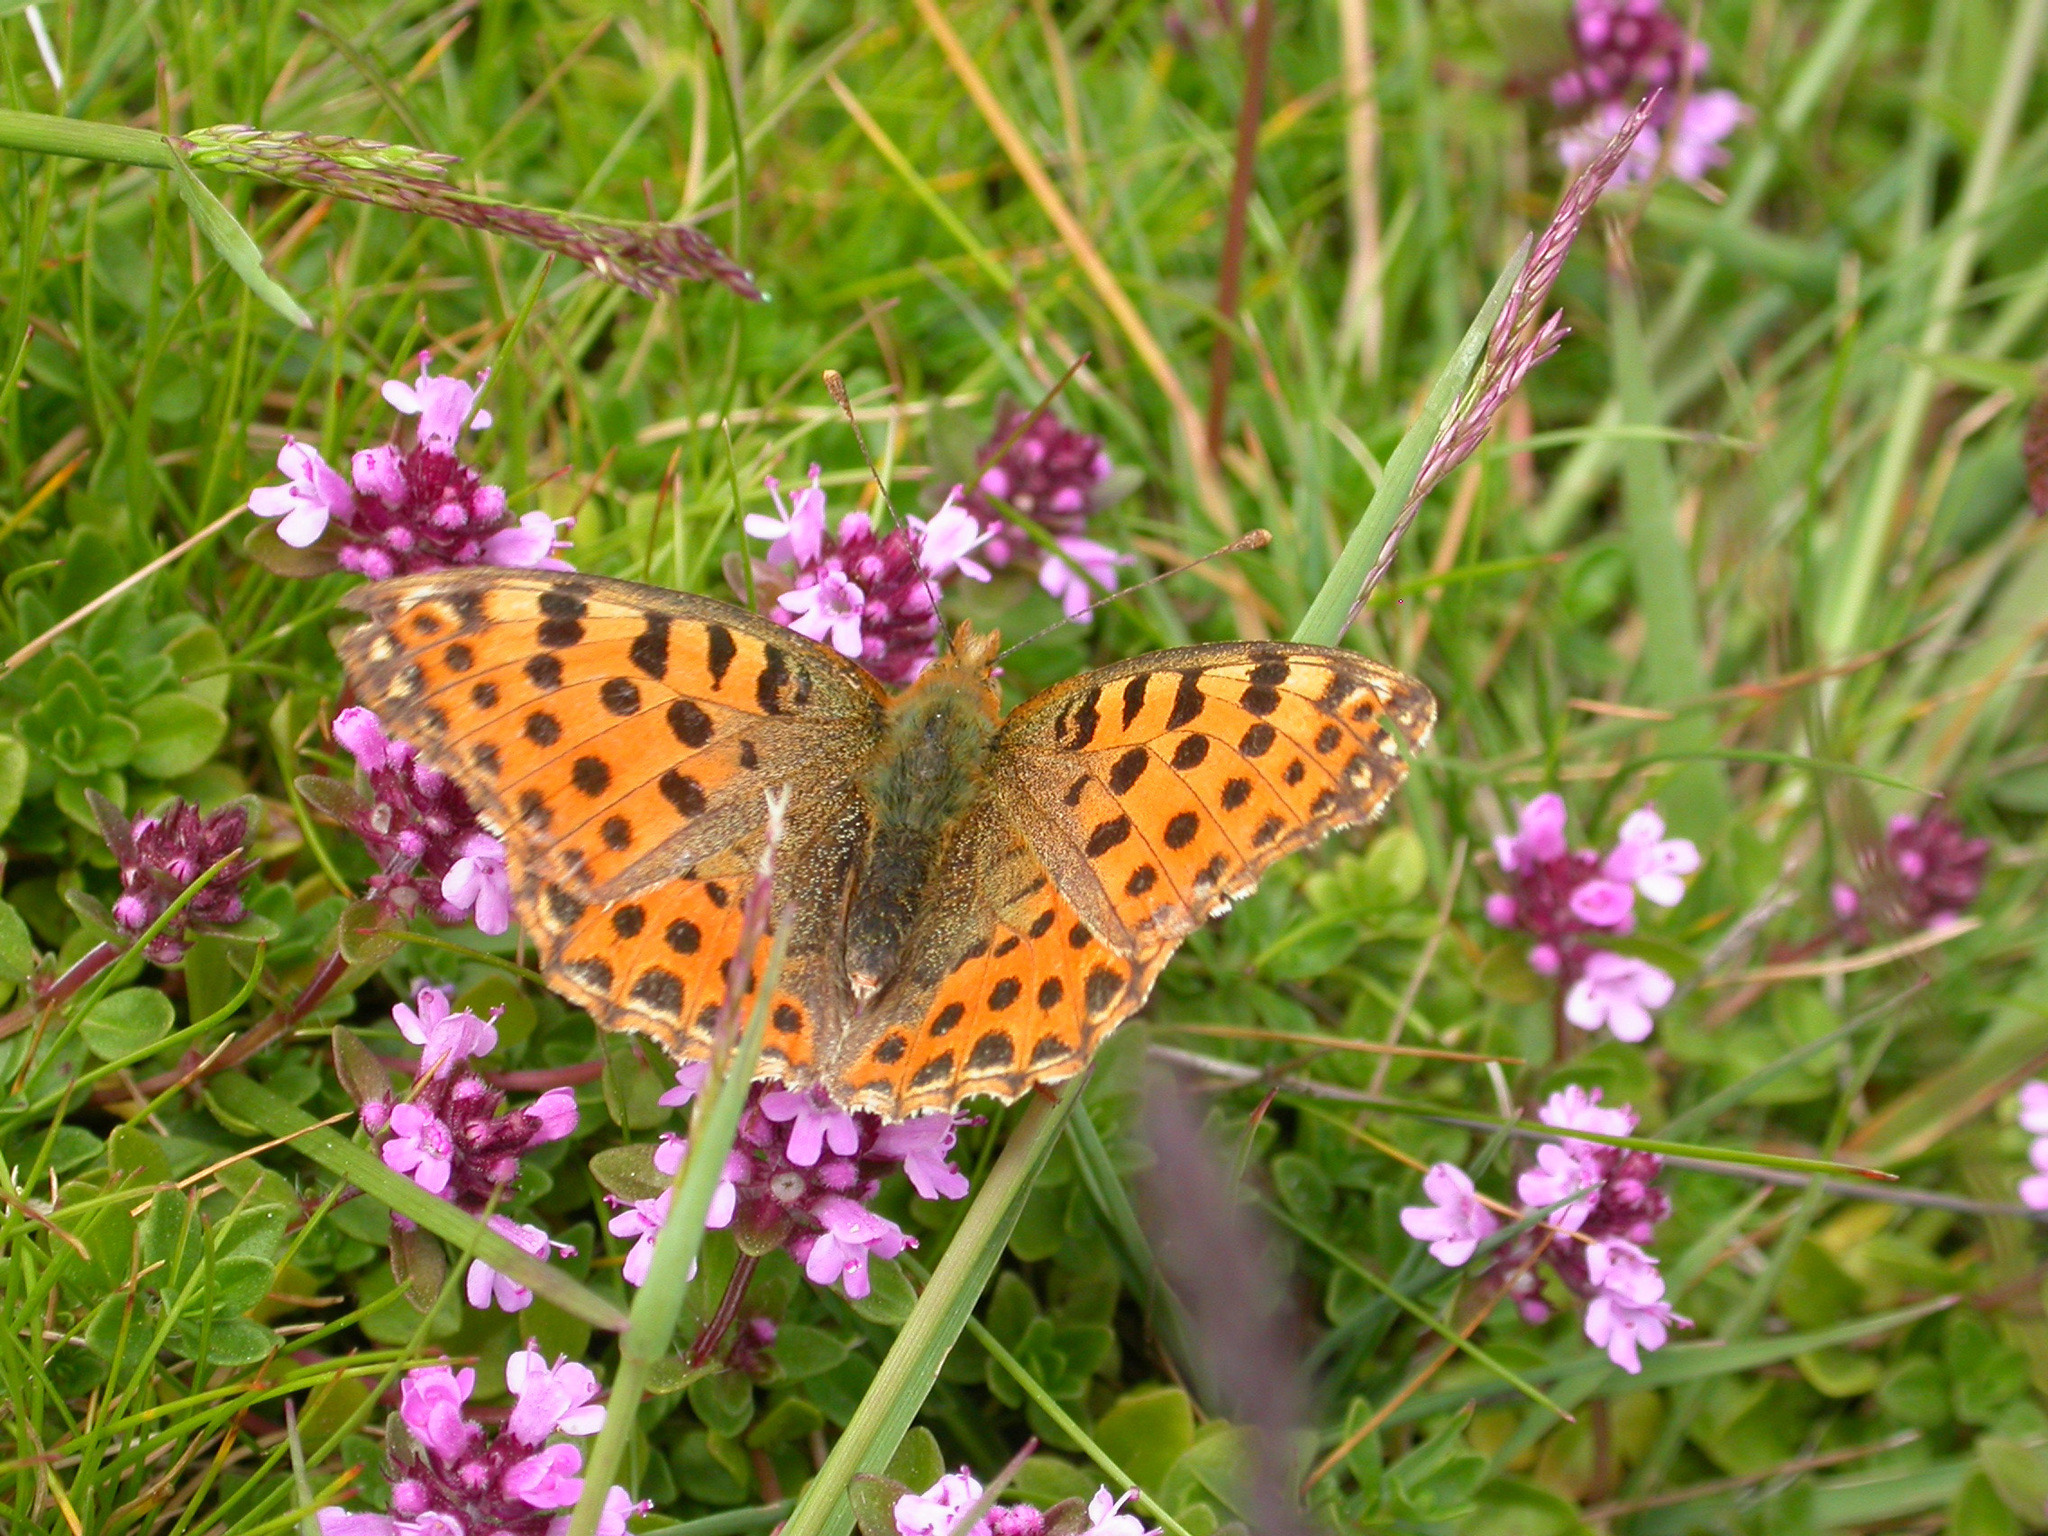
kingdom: Animalia
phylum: Arthropoda
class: Insecta
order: Lepidoptera
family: Nymphalidae
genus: Issoria
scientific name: Issoria lathonia
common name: Queen of spain fritillary
